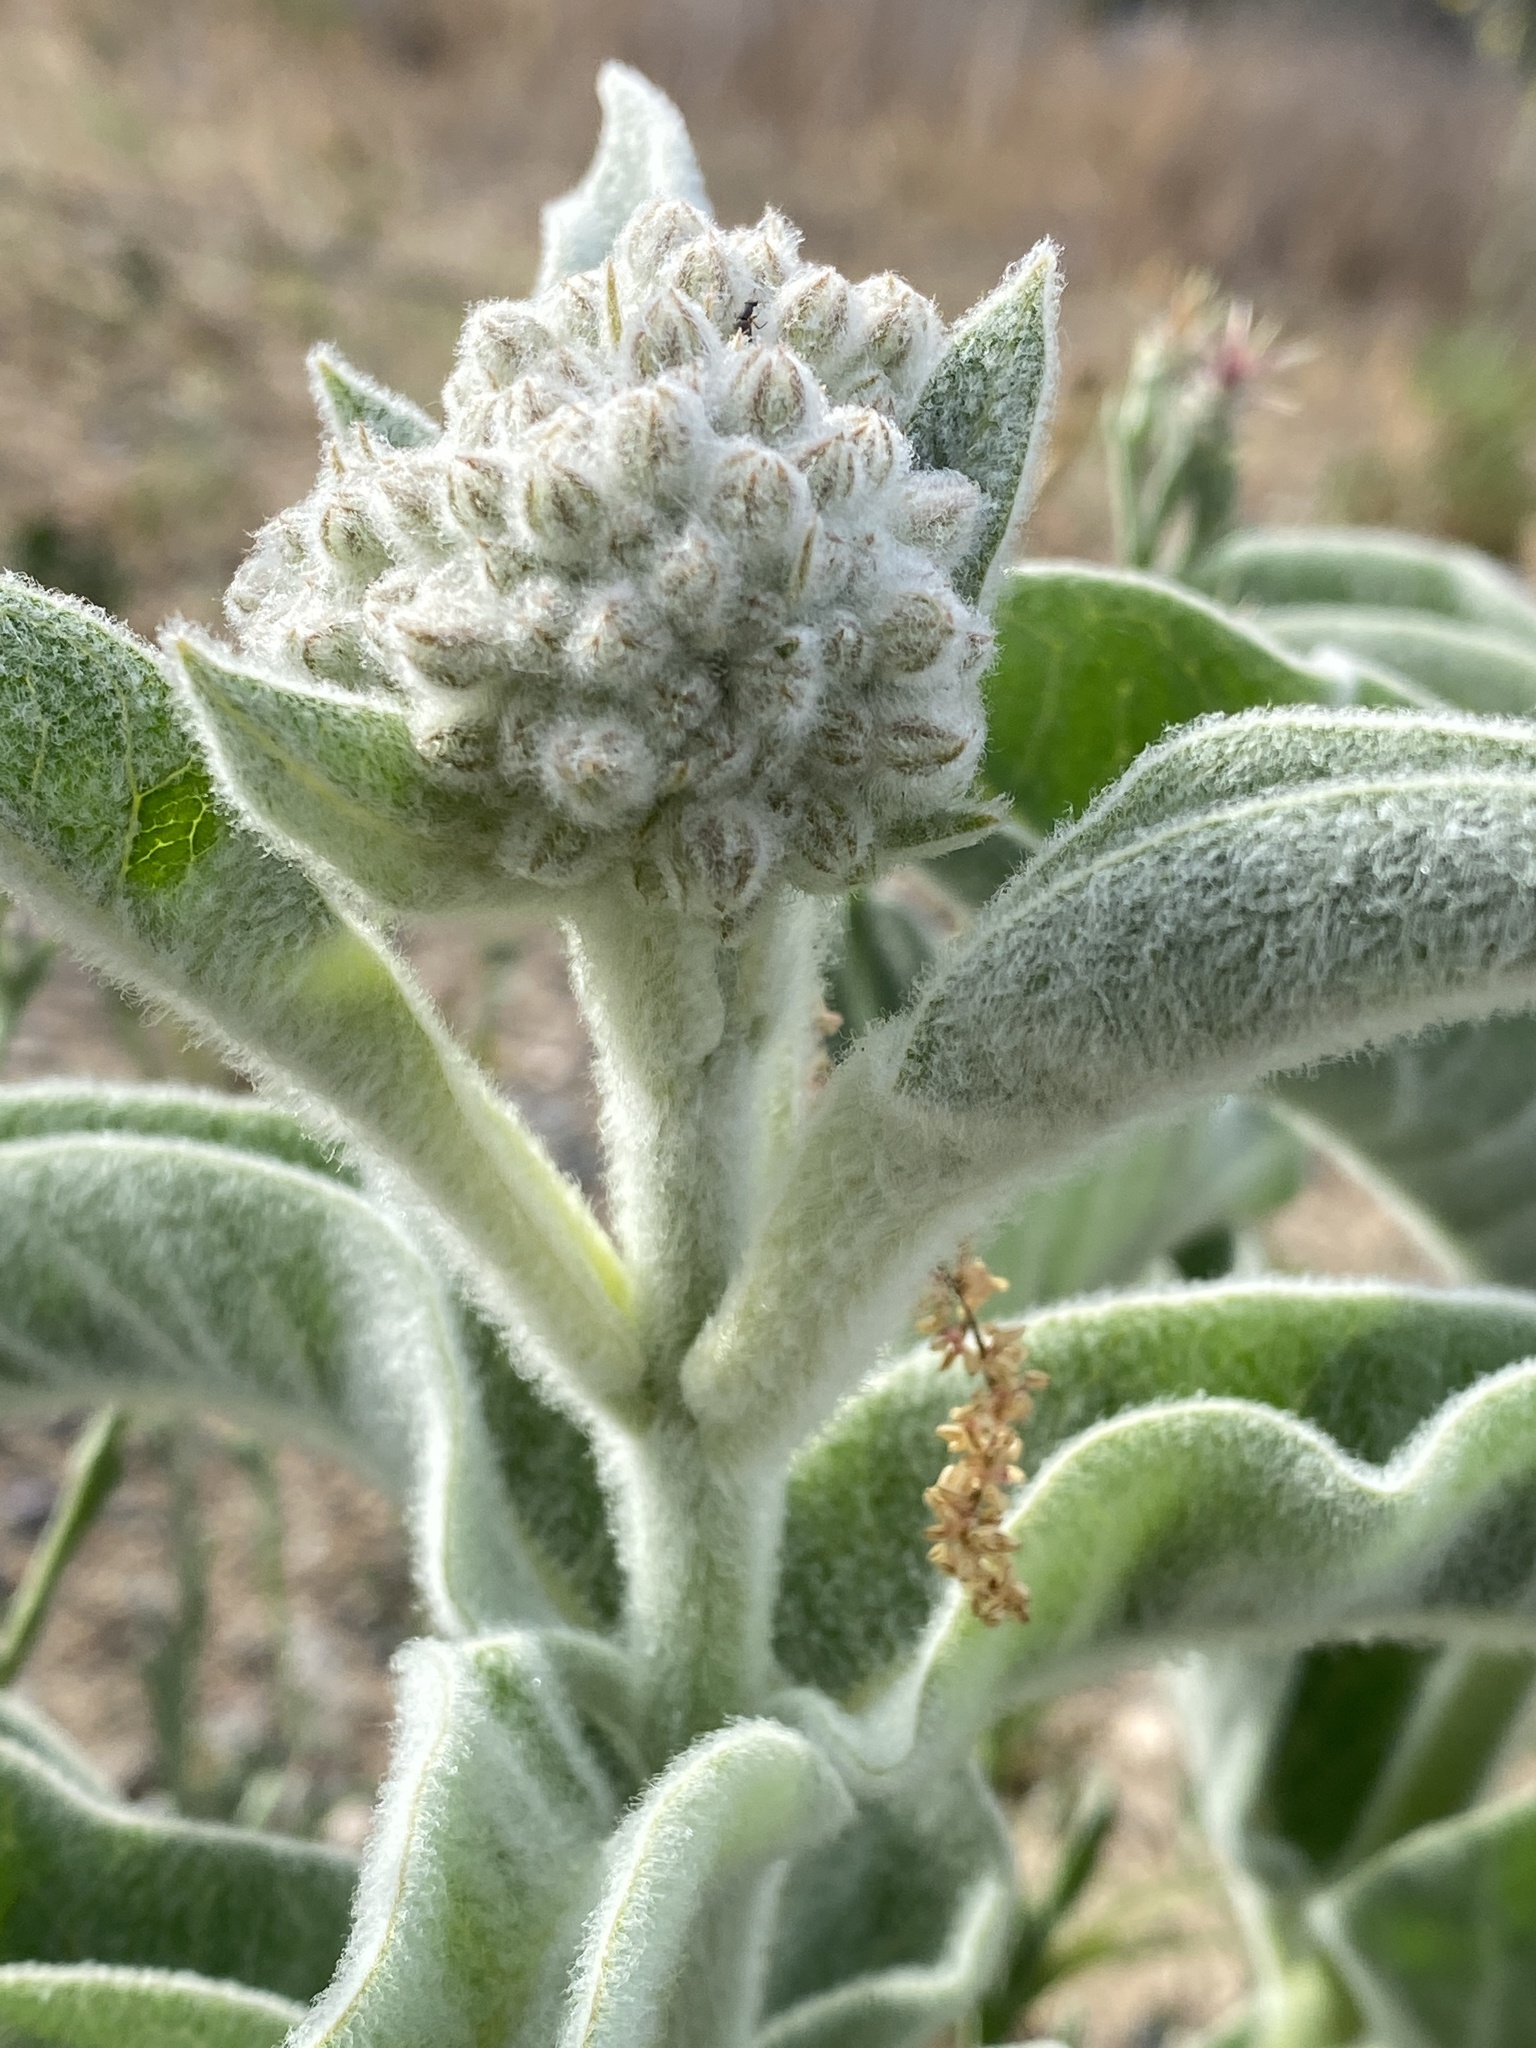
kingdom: Plantae
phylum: Tracheophyta
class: Magnoliopsida
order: Gentianales
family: Apocynaceae
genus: Asclepias
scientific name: Asclepias eriocarpa
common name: Indian milkweed
